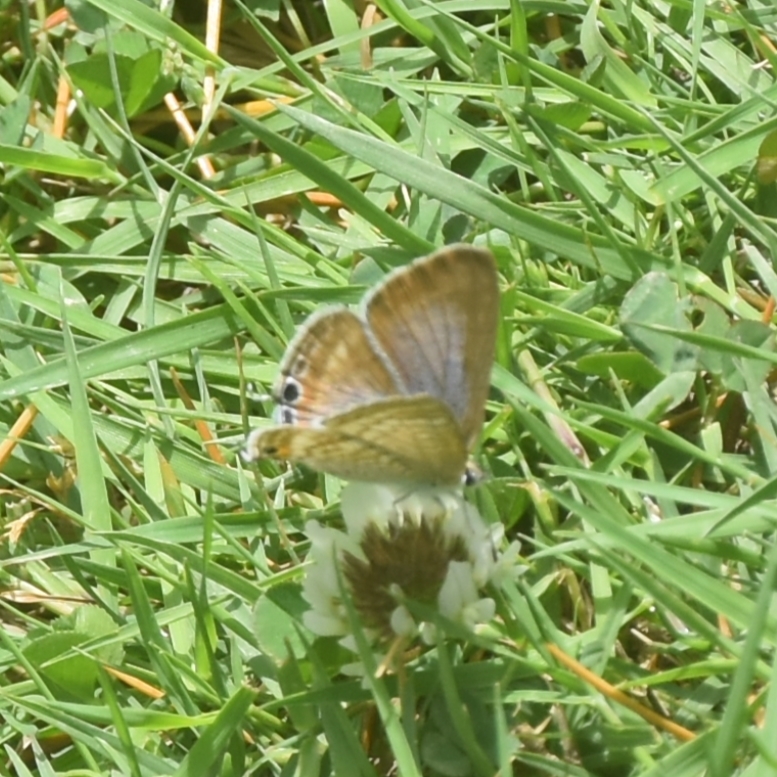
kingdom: Animalia
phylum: Arthropoda
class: Insecta
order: Lepidoptera
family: Lycaenidae
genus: Lampides
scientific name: Lampides boeticus
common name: Long-tailed blue
